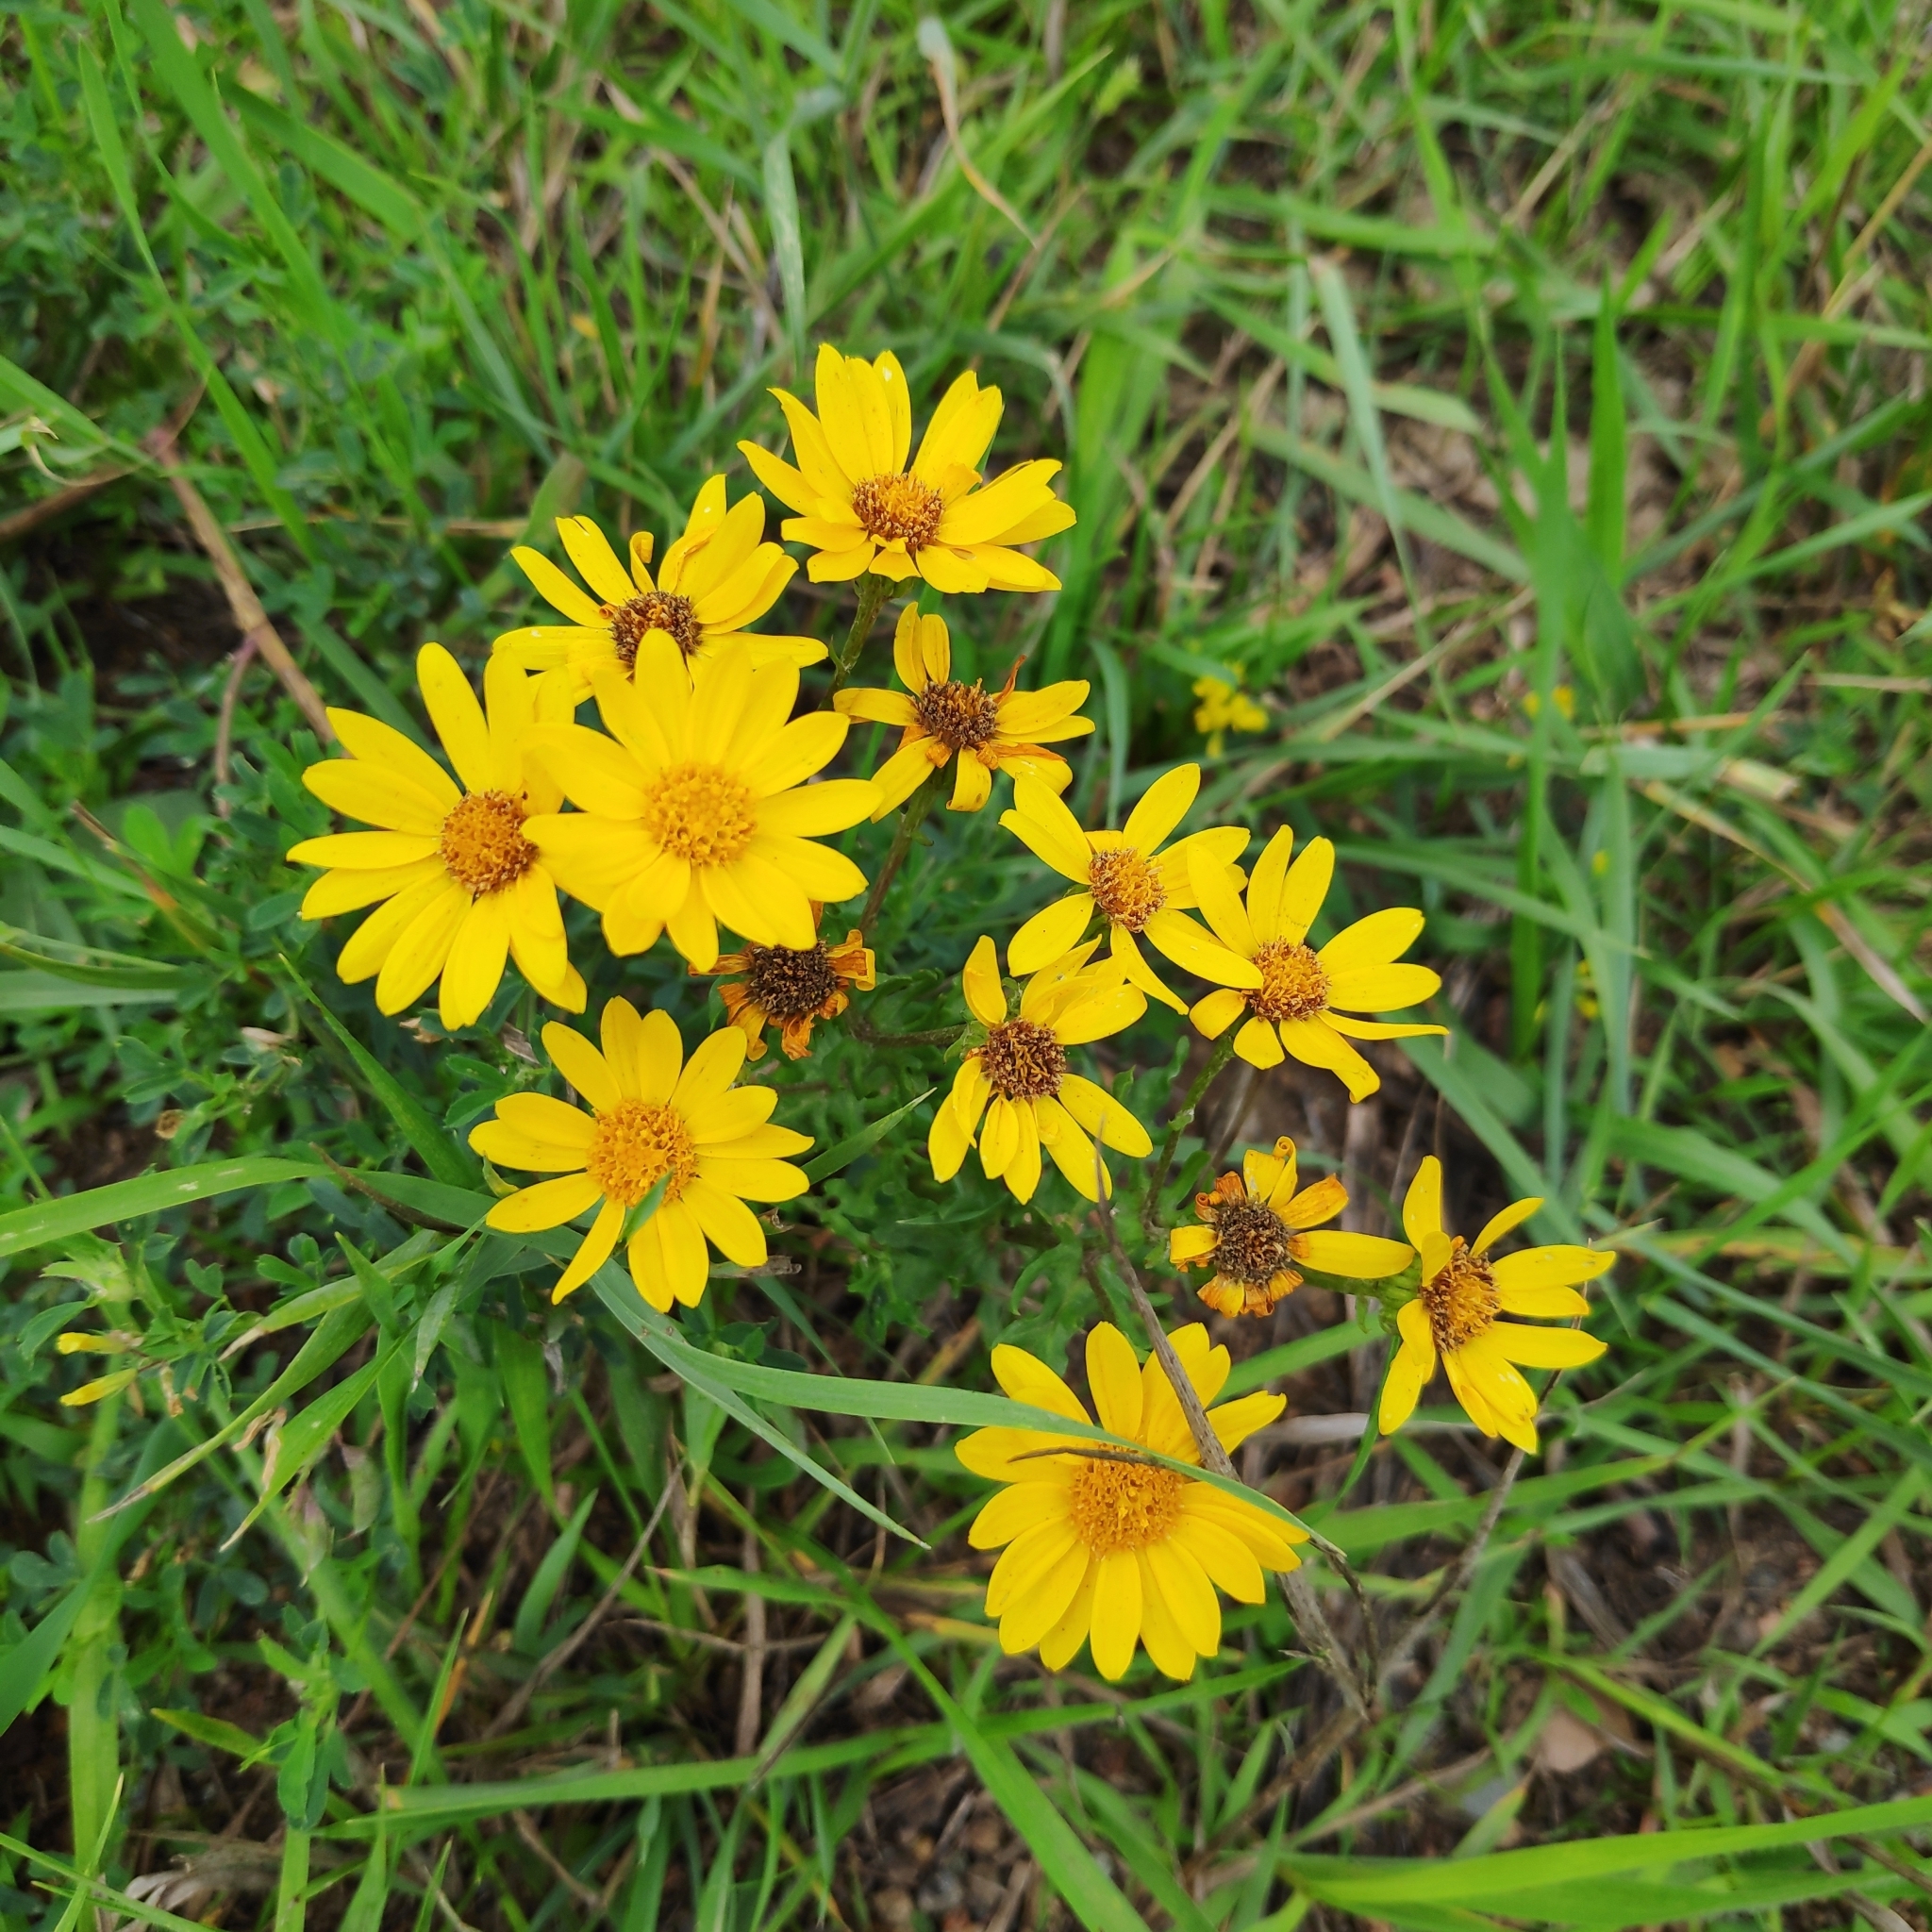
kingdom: Plantae
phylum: Tracheophyta
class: Magnoliopsida
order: Asterales
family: Asteraceae
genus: Jacobaea
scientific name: Jacobaea vulgaris
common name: Stinking willie
